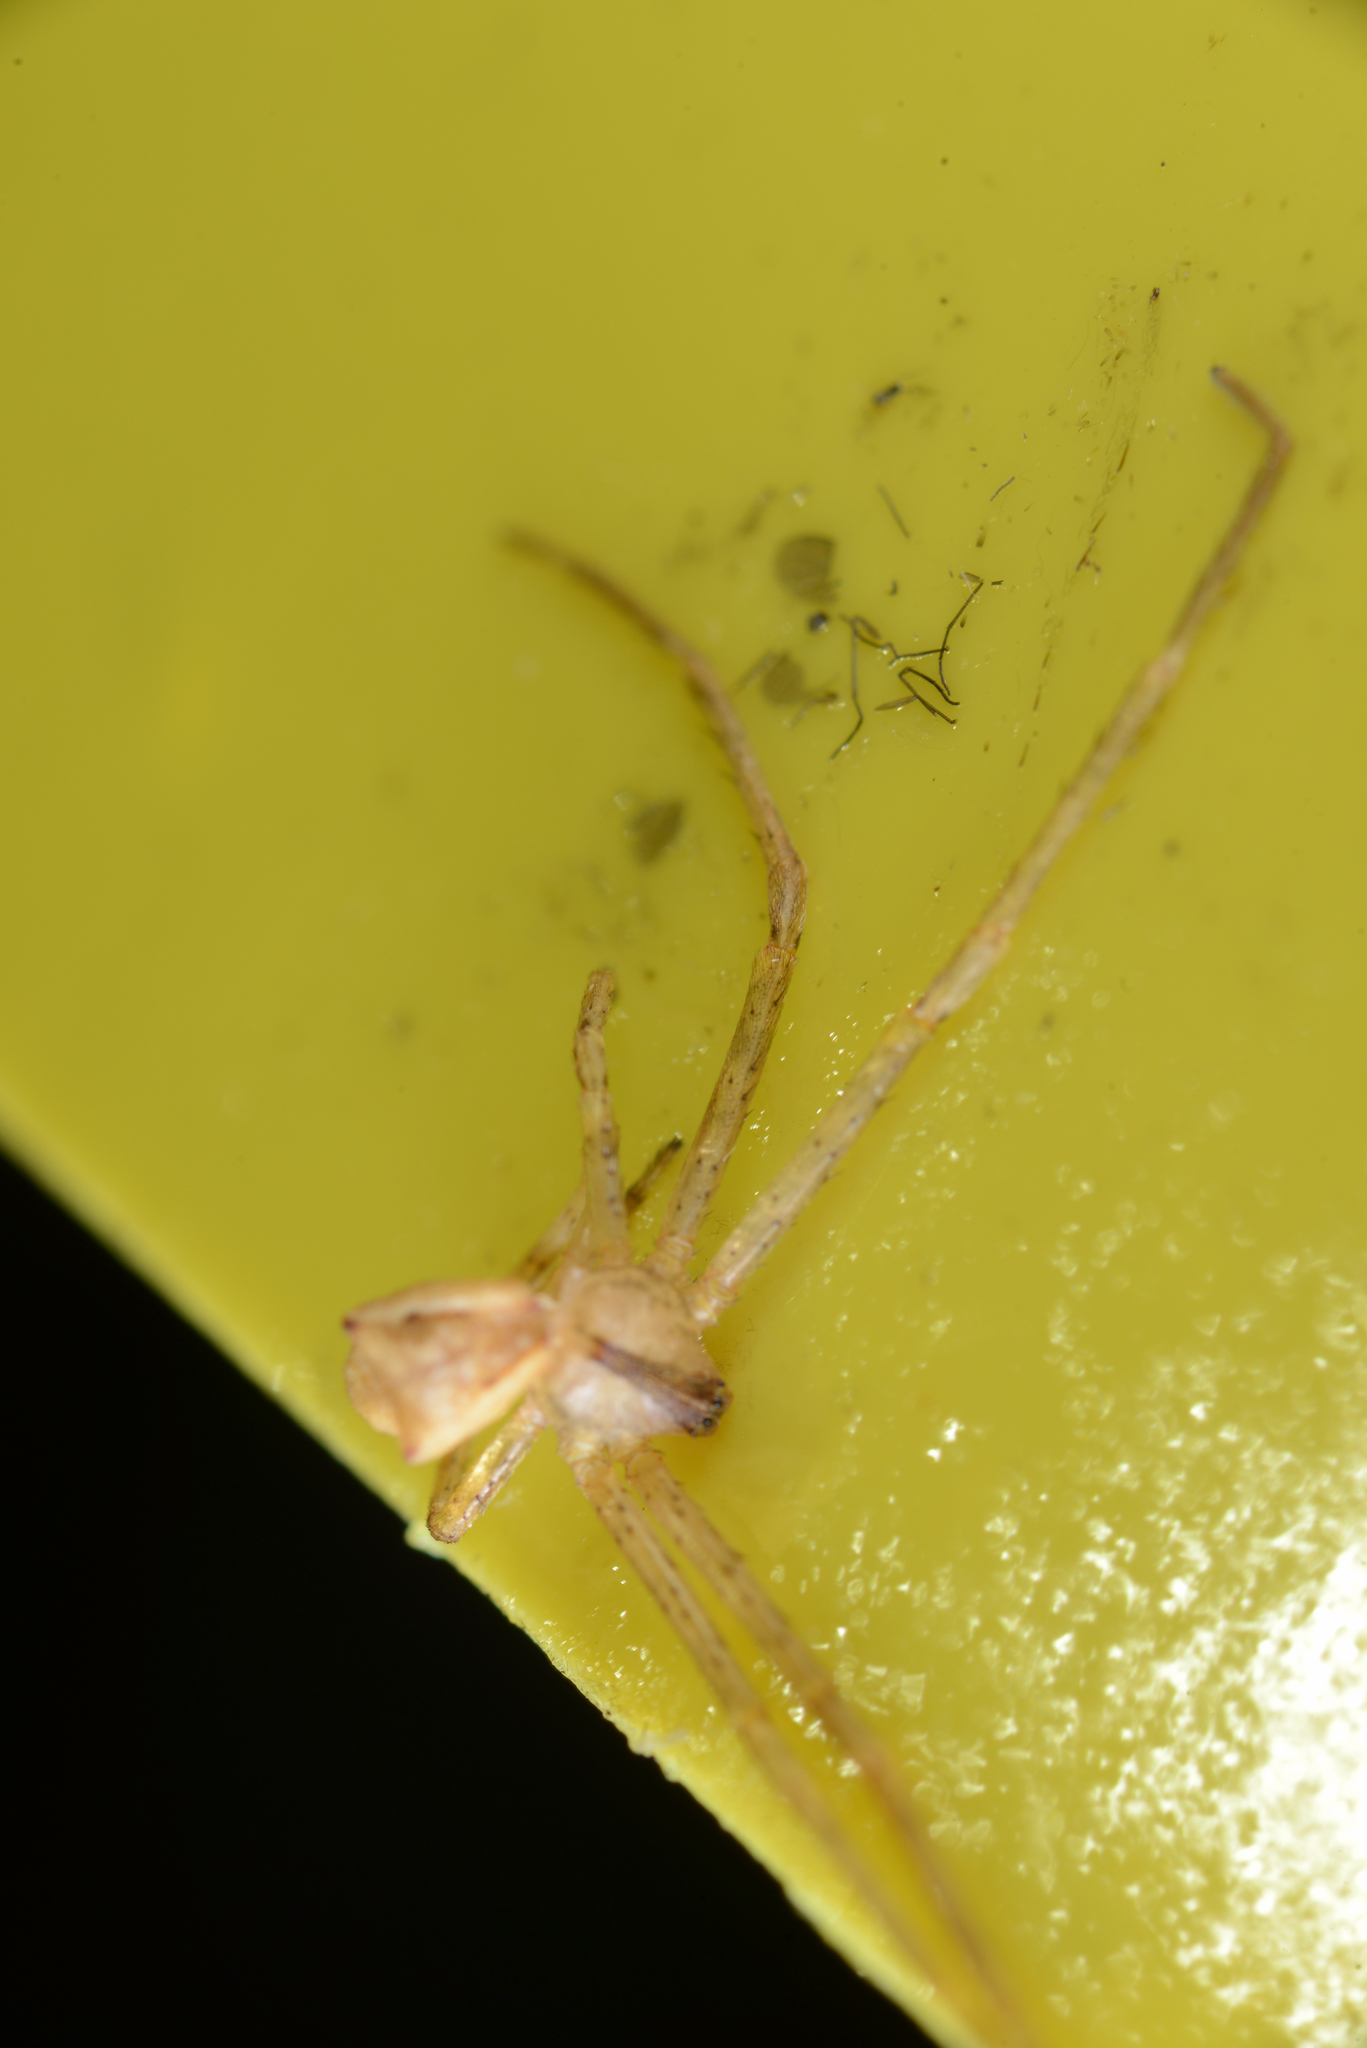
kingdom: Animalia
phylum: Arthropoda
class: Arachnida
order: Araneae
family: Thomisidae
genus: Sidymella
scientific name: Sidymella longipes
